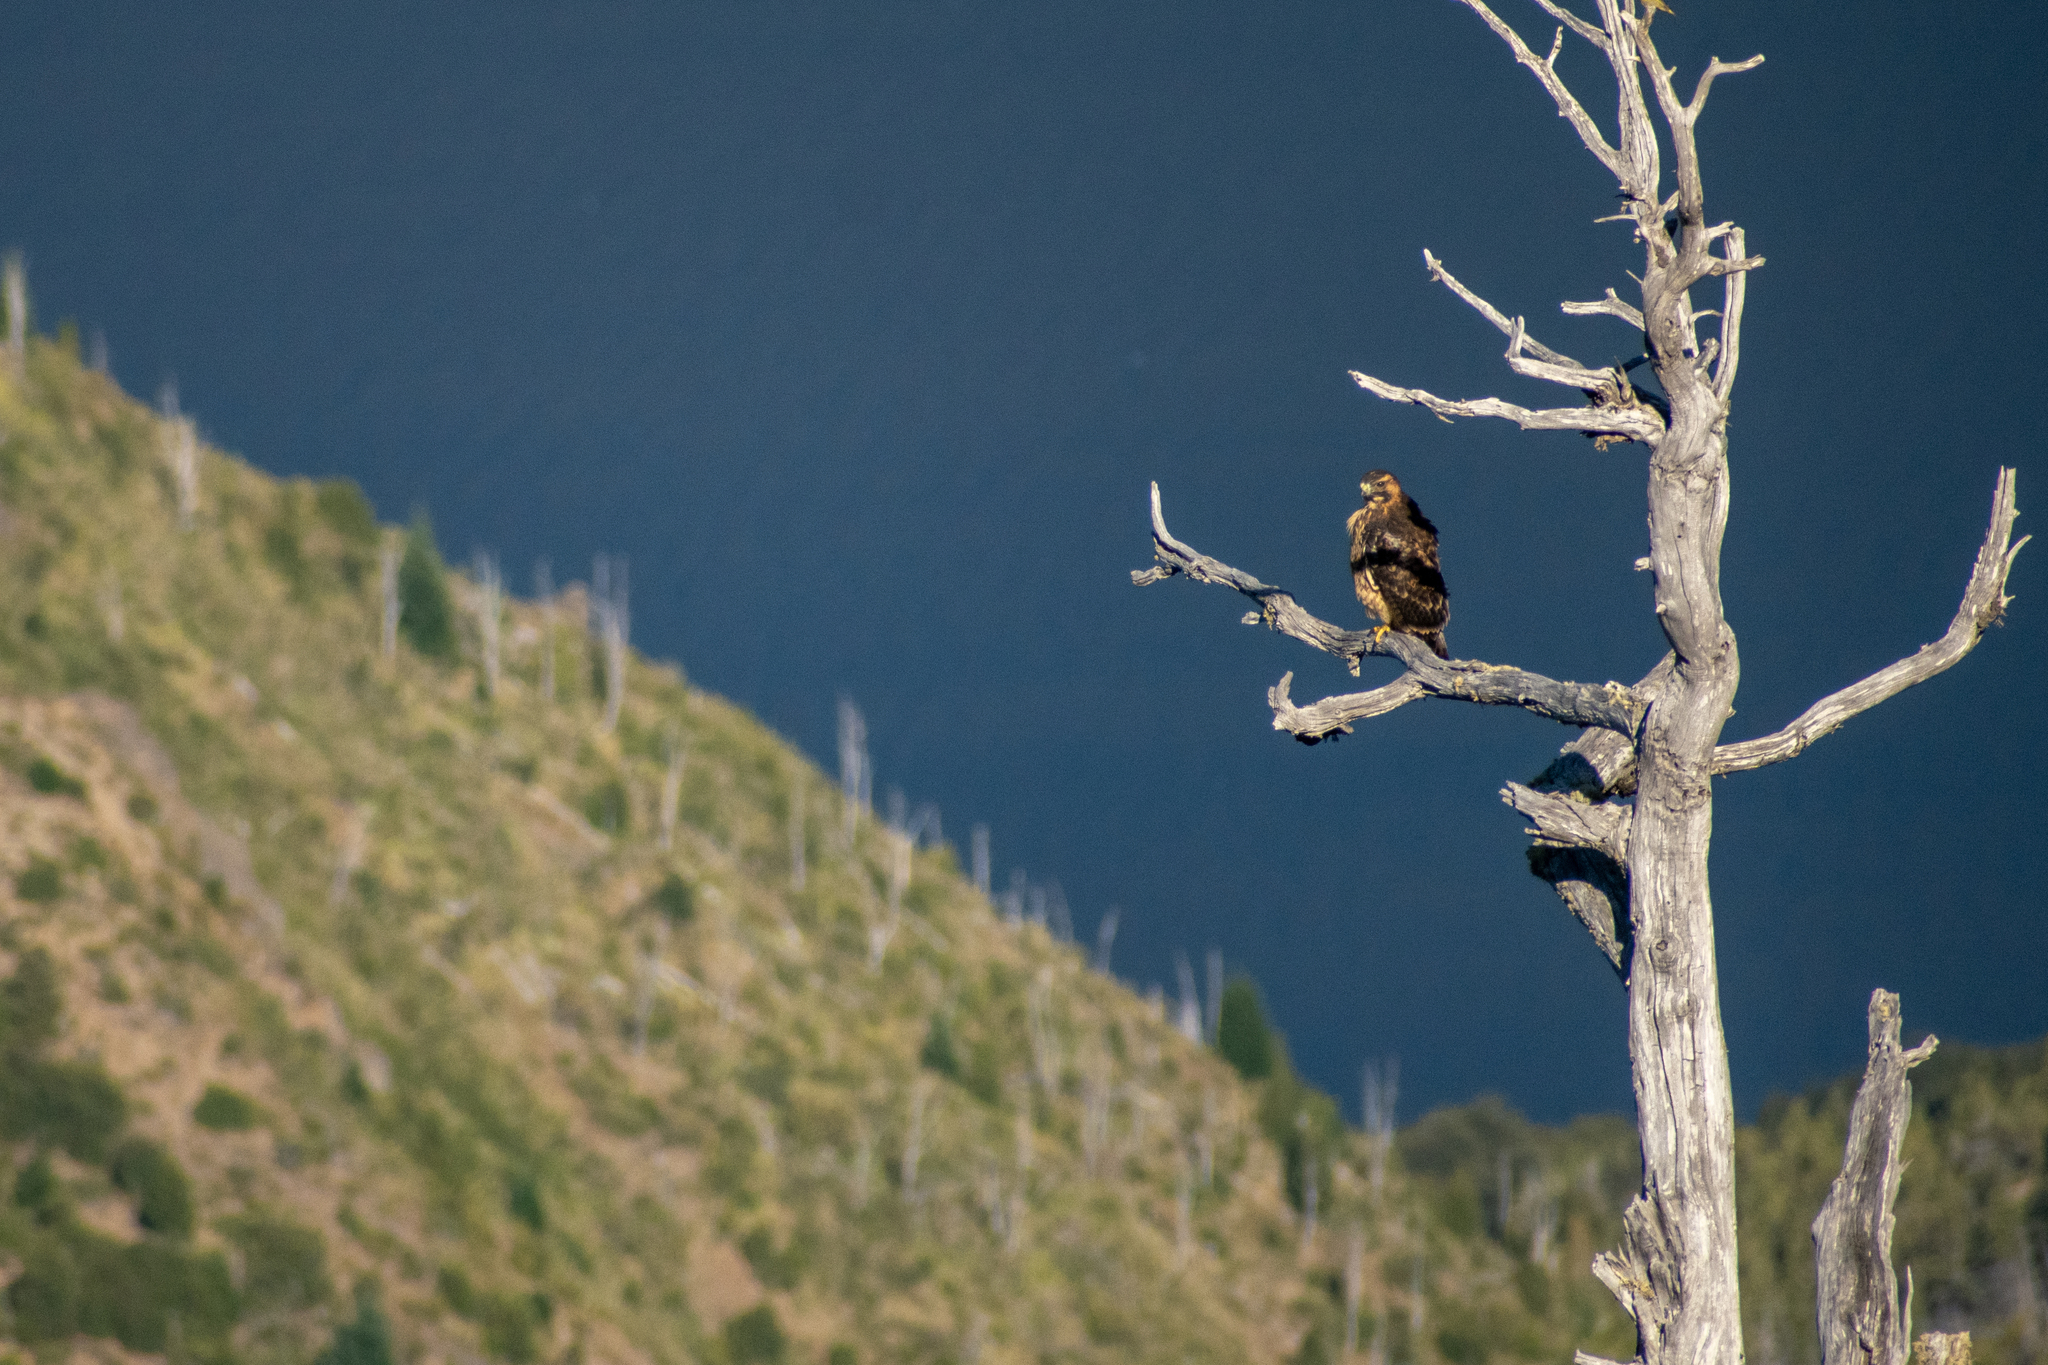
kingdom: Animalia
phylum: Chordata
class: Aves
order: Accipitriformes
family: Accipitridae
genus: Buteo
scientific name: Buteo polyosoma
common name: Variable hawk
